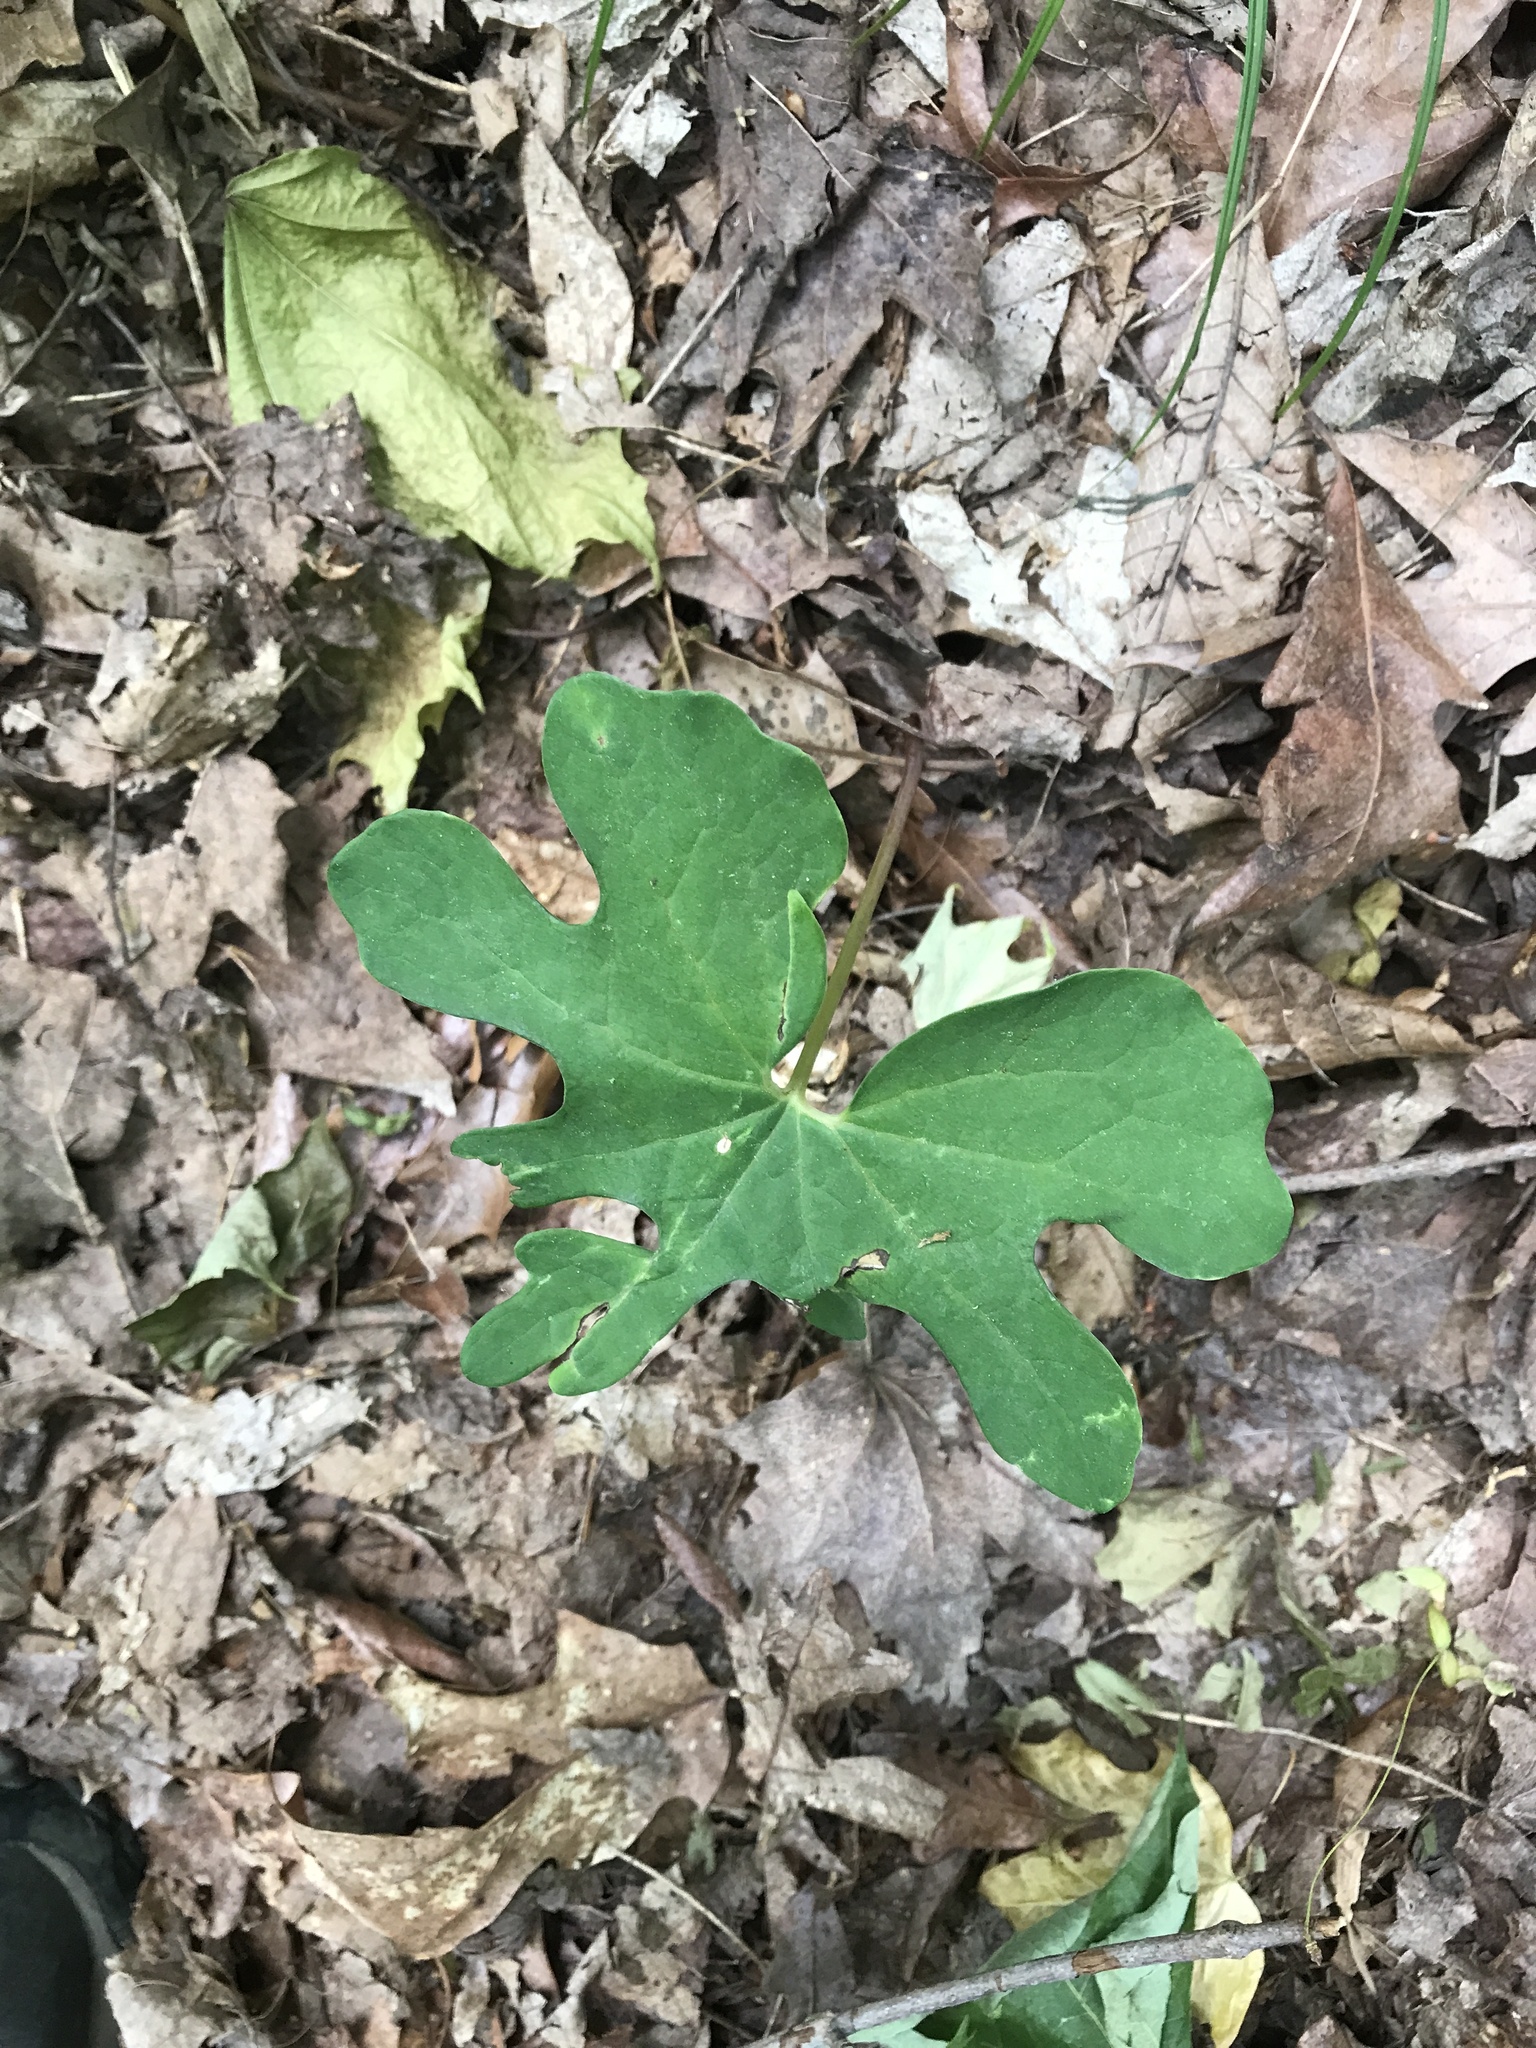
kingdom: Plantae
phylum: Tracheophyta
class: Magnoliopsida
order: Ranunculales
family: Papaveraceae
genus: Sanguinaria
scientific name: Sanguinaria canadensis
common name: Bloodroot
